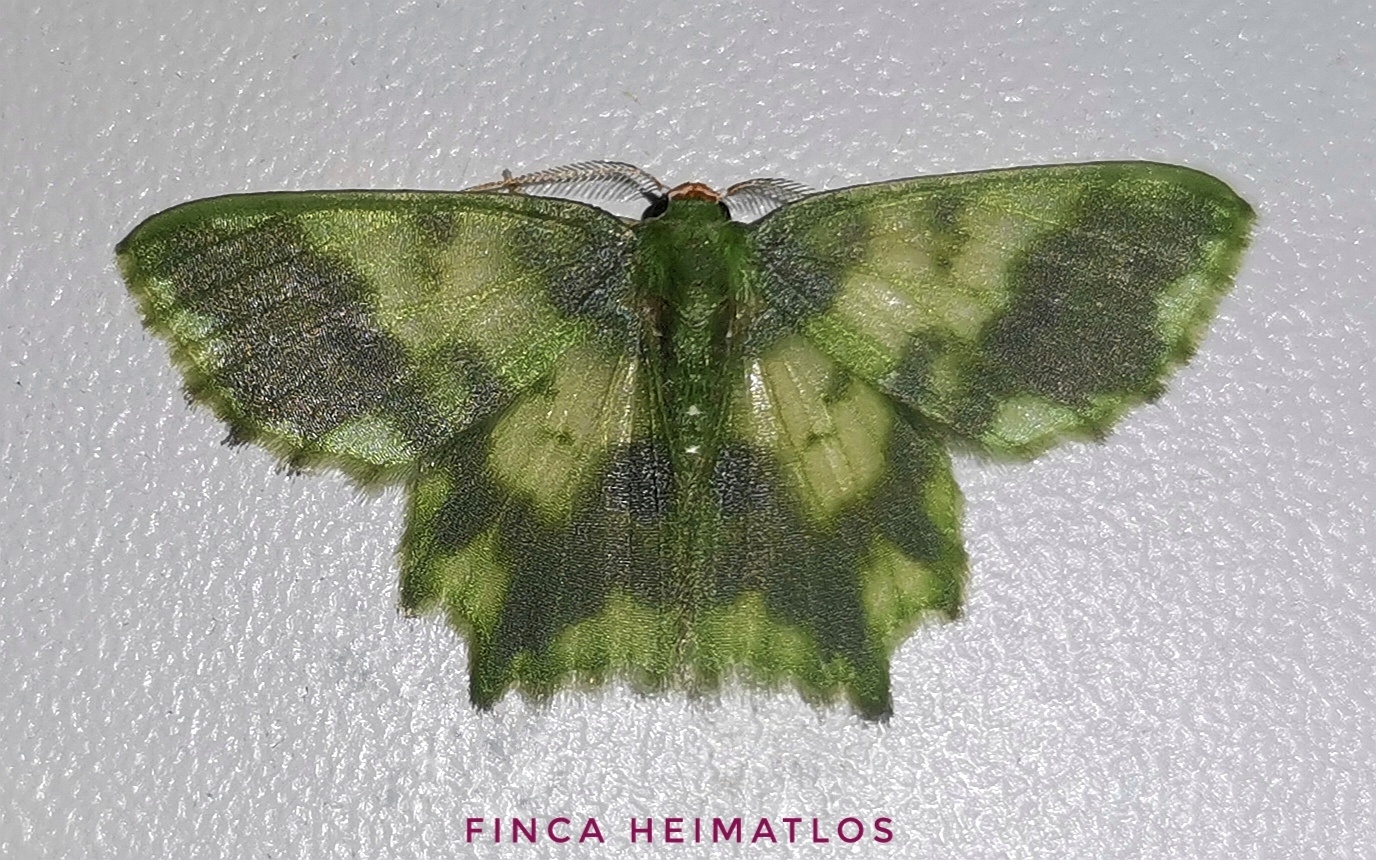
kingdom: Animalia
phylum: Arthropoda
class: Insecta
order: Lepidoptera
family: Geometridae
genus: Cathydata
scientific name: Cathydata batina
